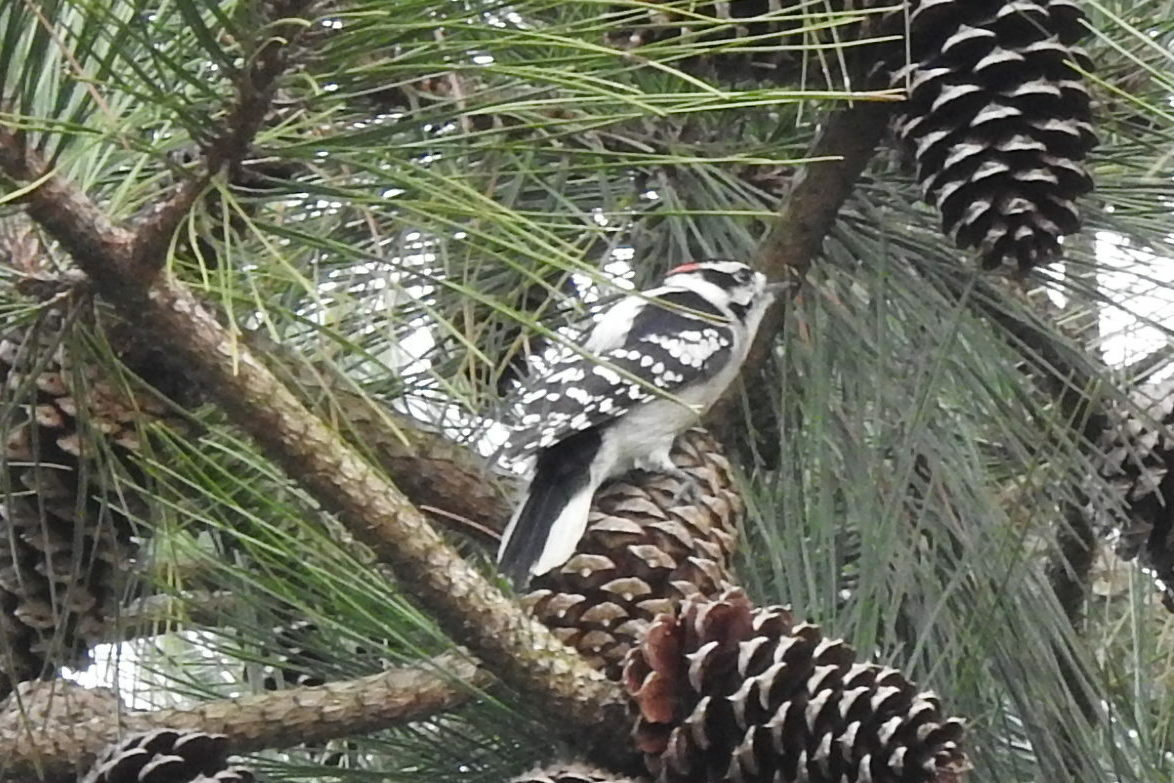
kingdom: Animalia
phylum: Chordata
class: Aves
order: Piciformes
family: Picidae
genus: Dryobates
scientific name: Dryobates pubescens
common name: Downy woodpecker
